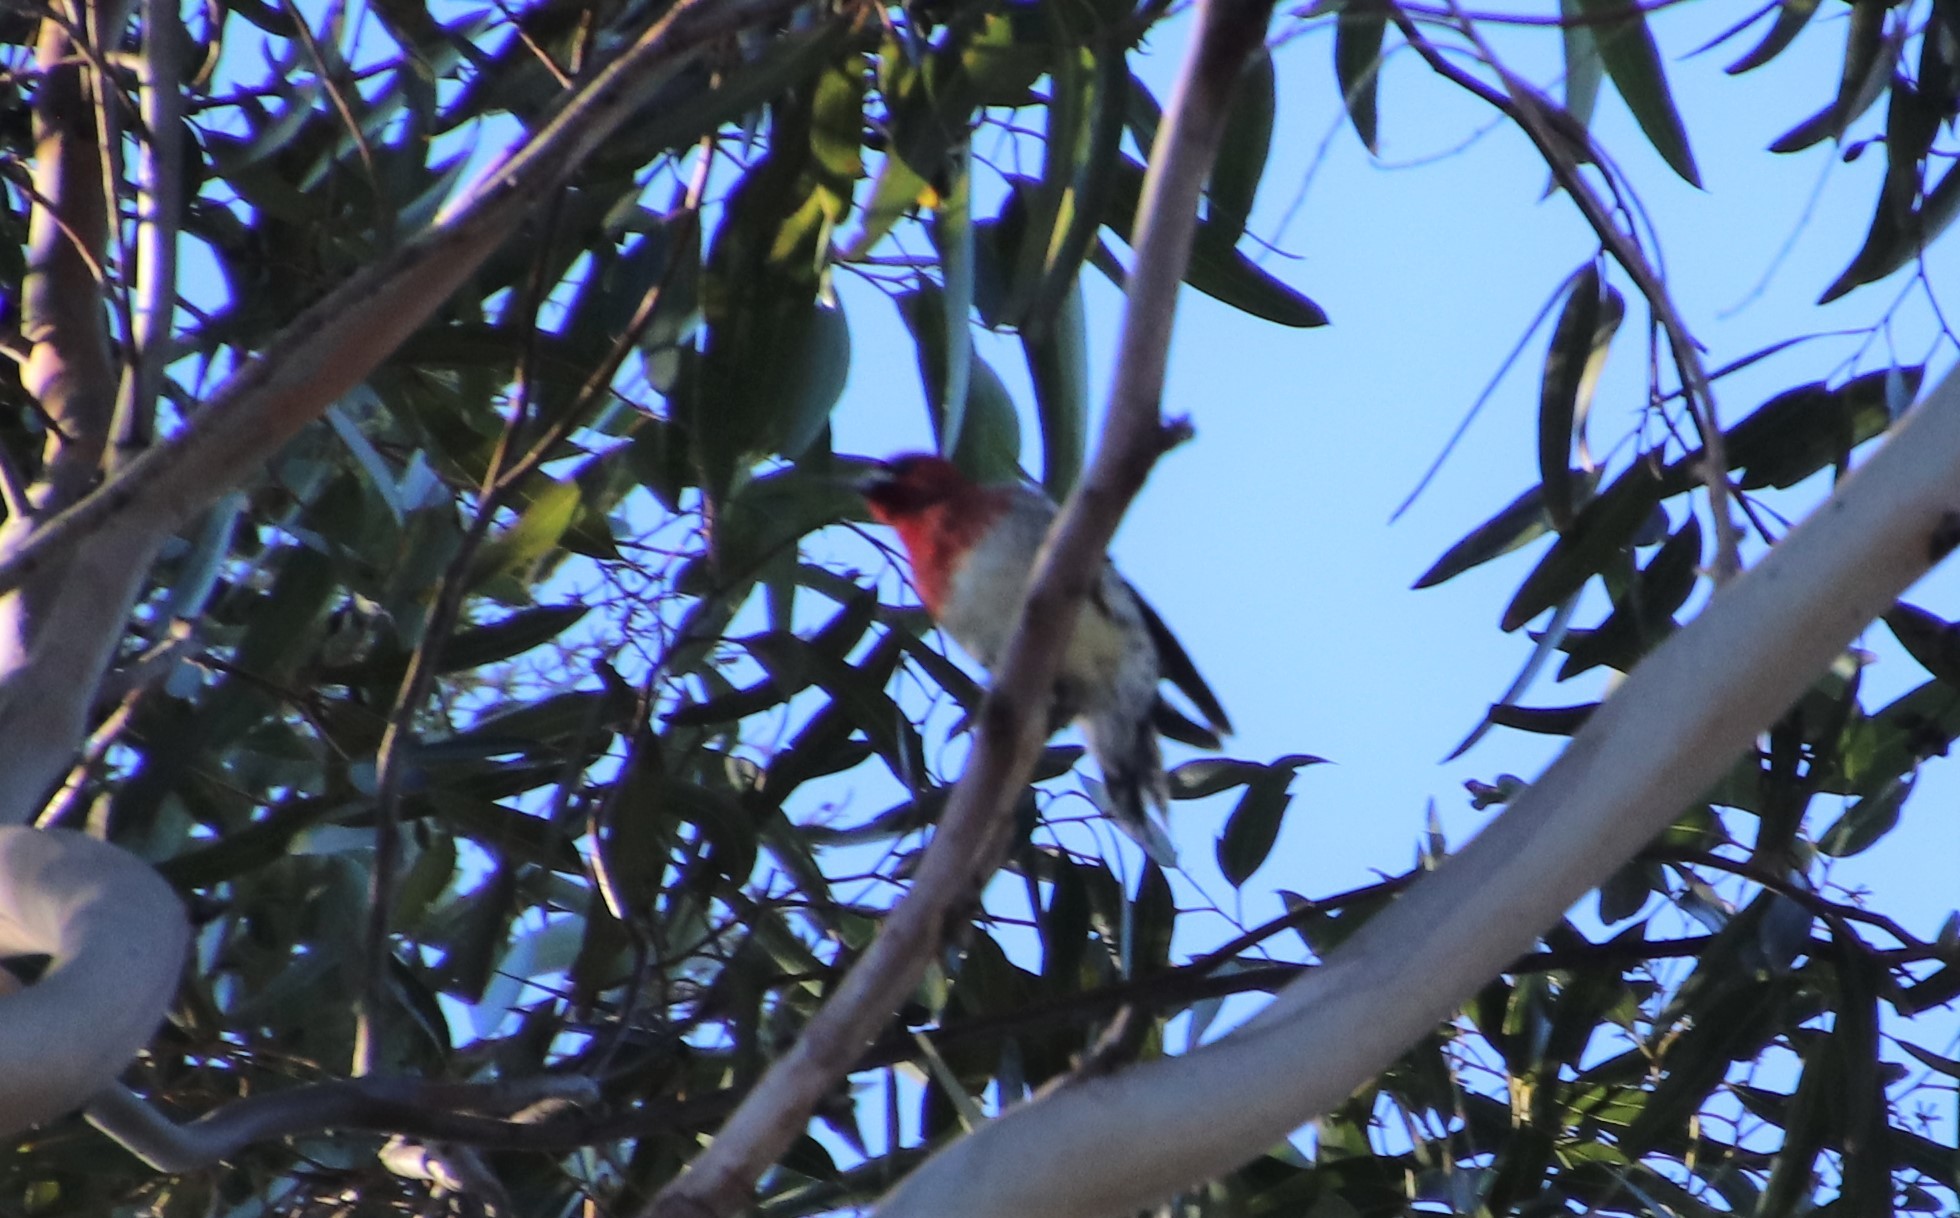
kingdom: Animalia
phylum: Chordata
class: Aves
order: Piciformes
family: Picidae
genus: Sphyrapicus
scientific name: Sphyrapicus ruber
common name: Red-breasted sapsucker
